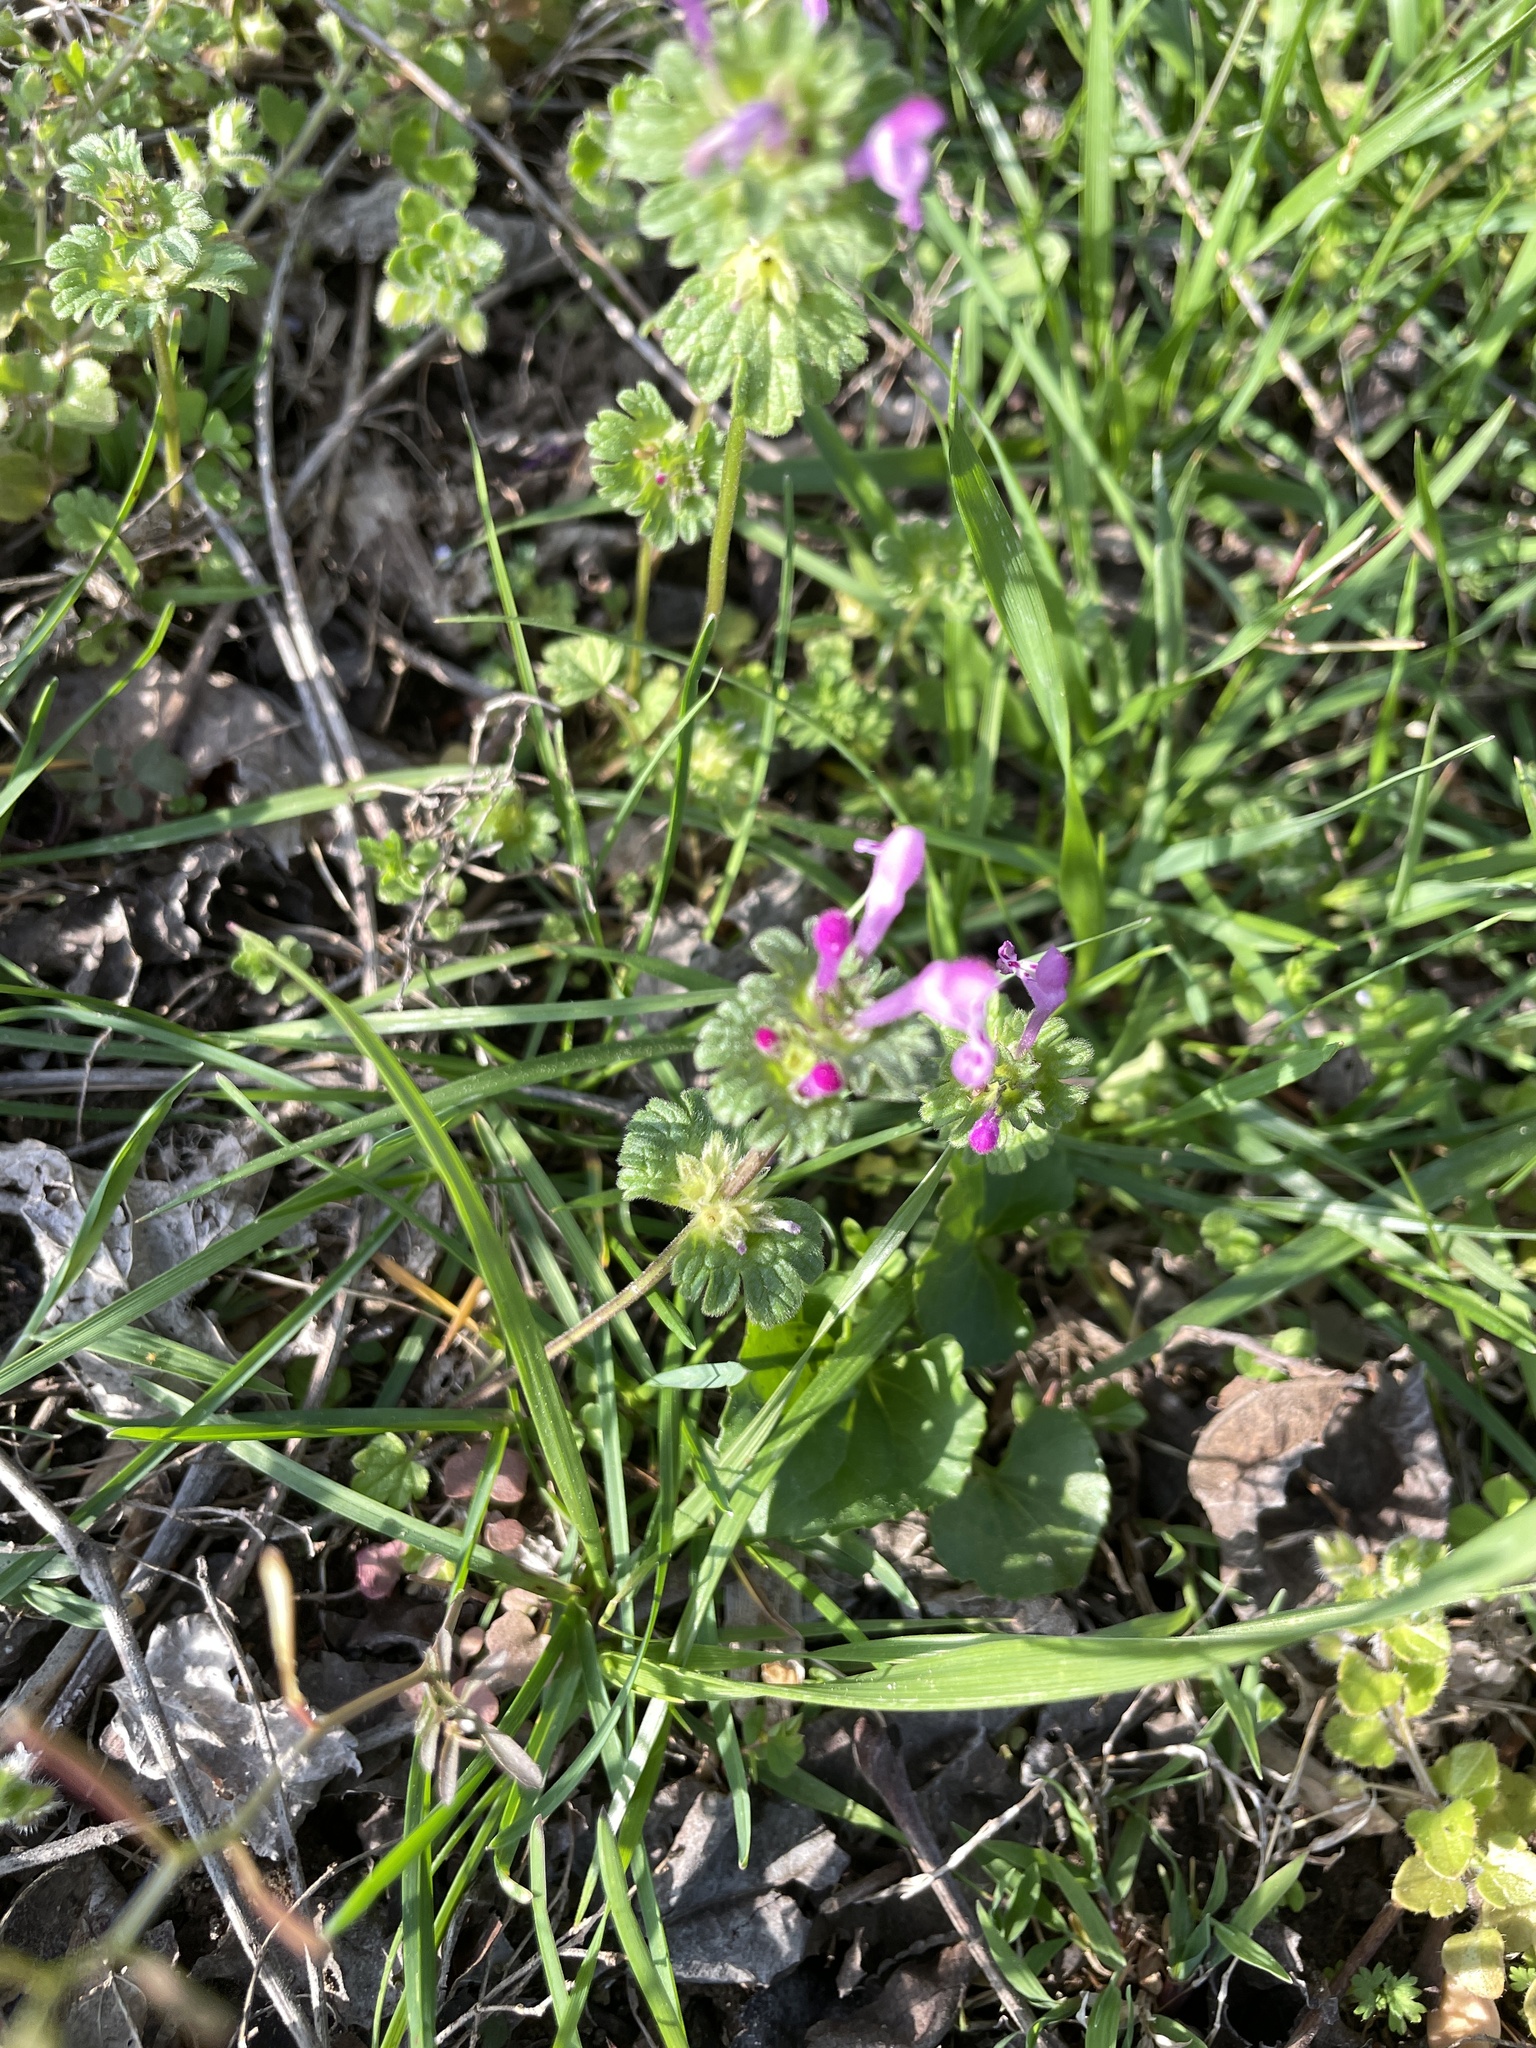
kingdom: Plantae
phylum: Tracheophyta
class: Magnoliopsida
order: Lamiales
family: Lamiaceae
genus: Lamium
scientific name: Lamium amplexicaule
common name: Henbit dead-nettle
